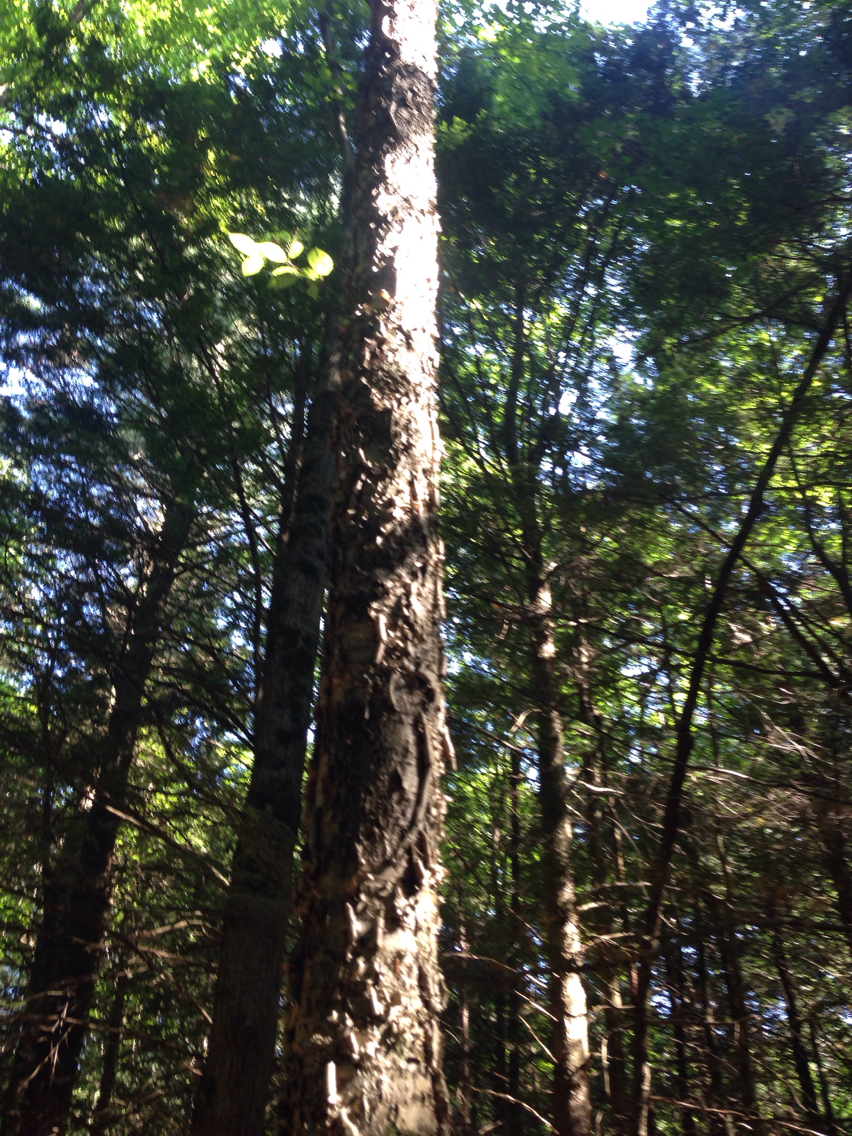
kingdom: Plantae
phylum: Tracheophyta
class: Magnoliopsida
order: Fagales
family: Betulaceae
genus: Betula
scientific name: Betula alleghaniensis
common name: Yellow birch
